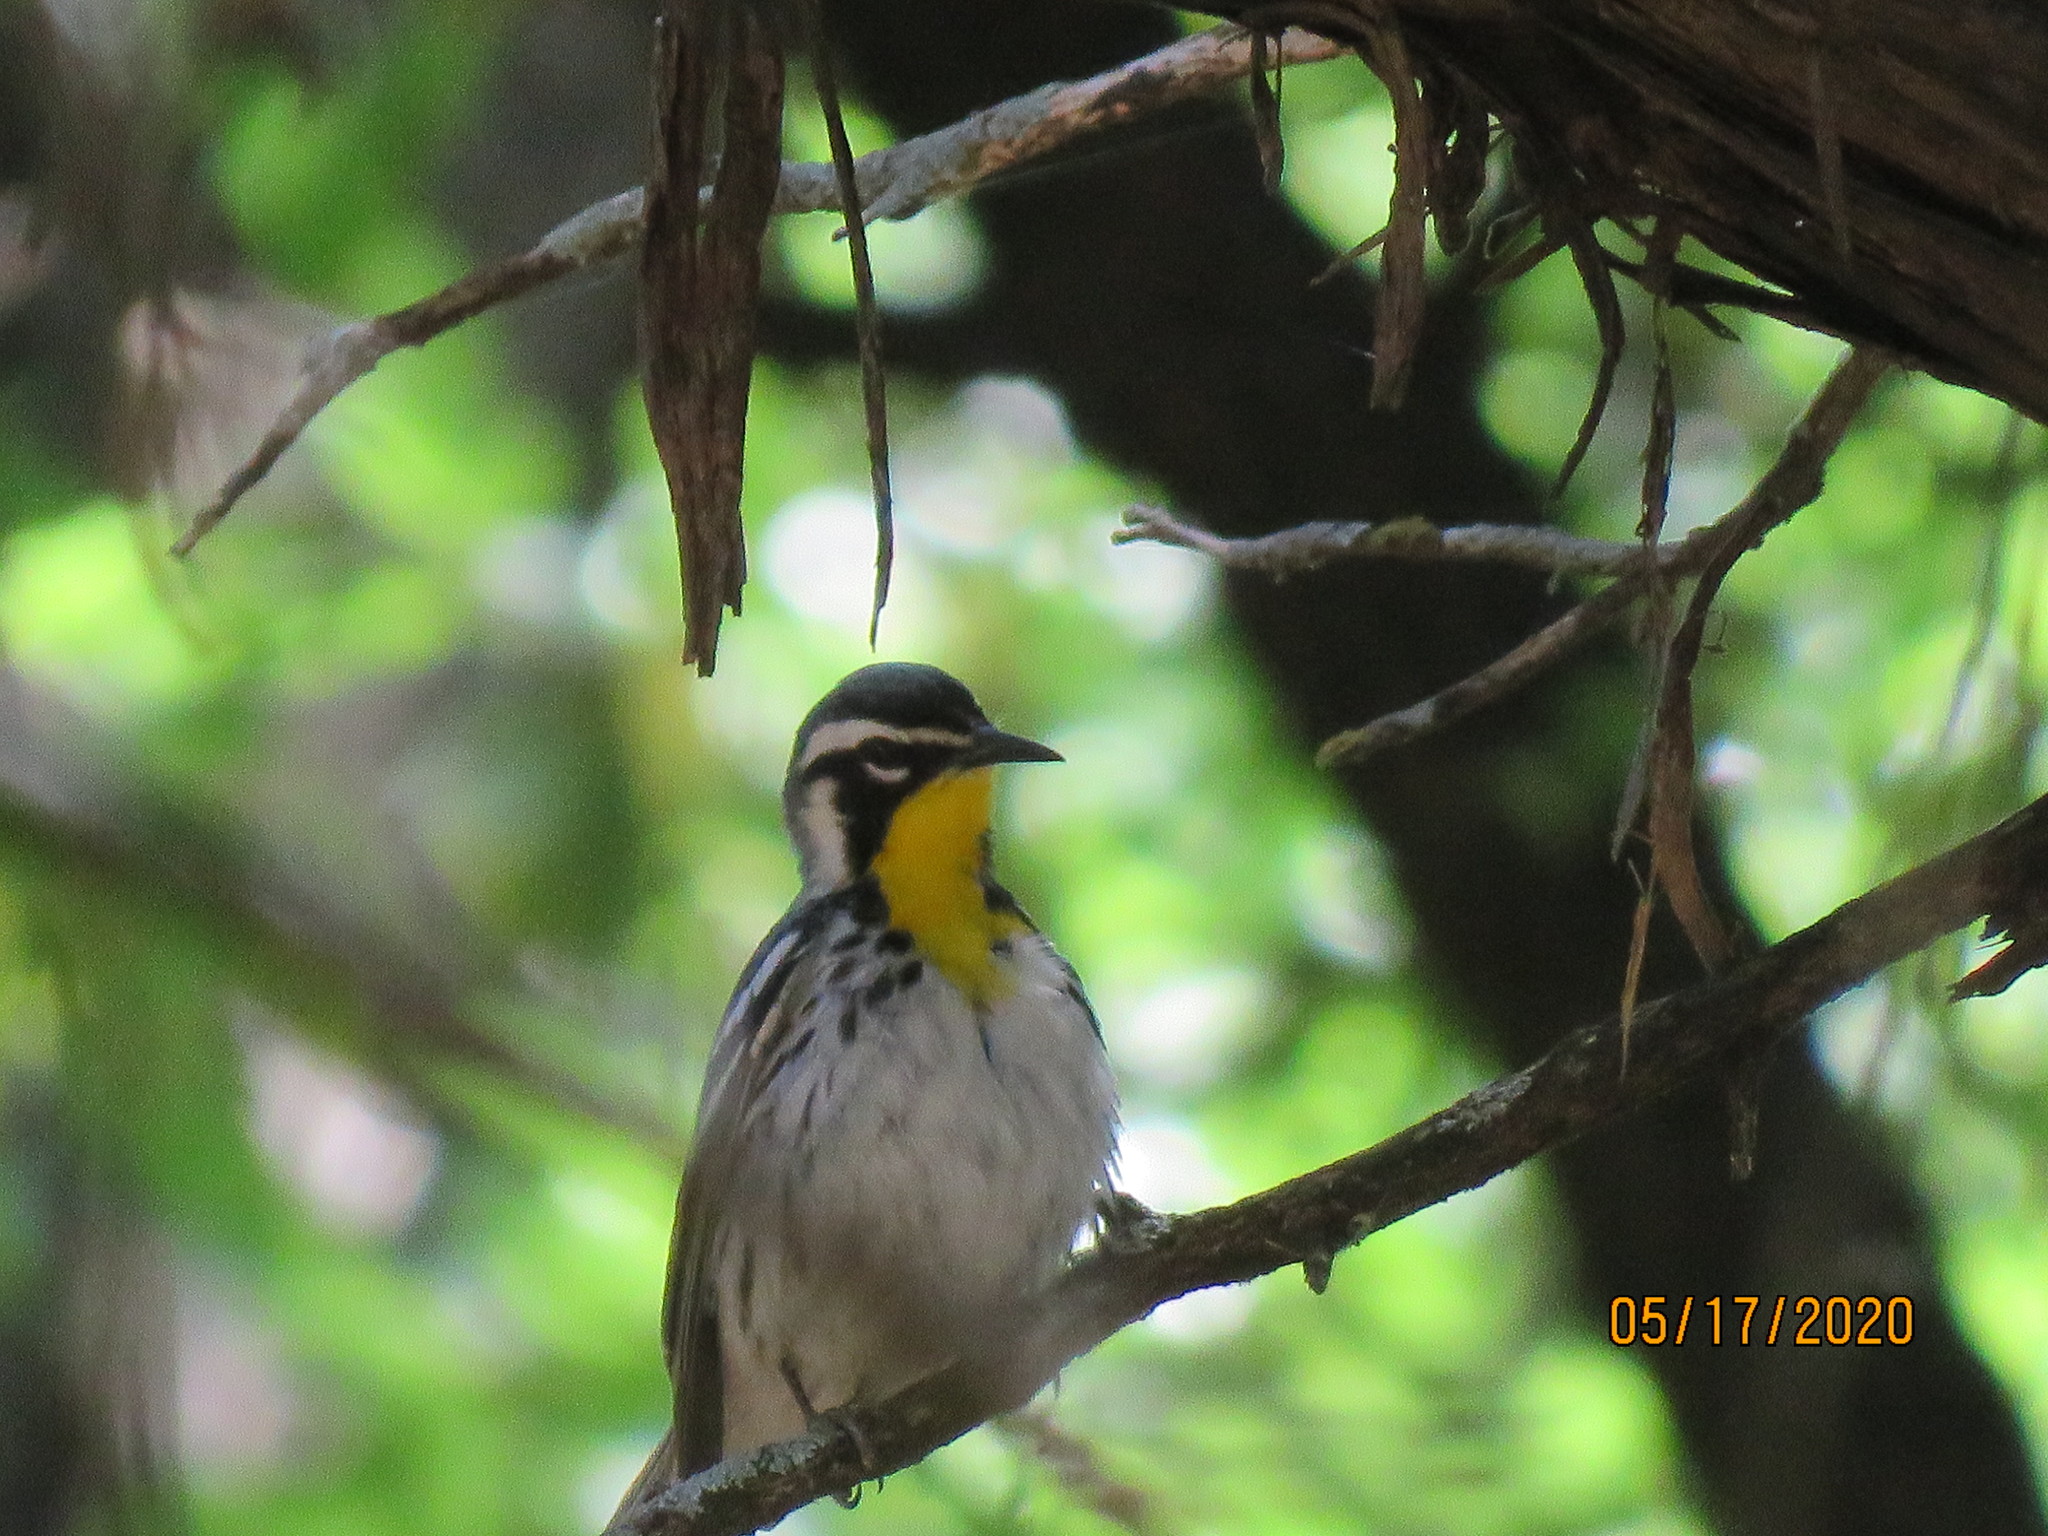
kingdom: Animalia
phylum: Chordata
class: Aves
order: Passeriformes
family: Parulidae
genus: Setophaga
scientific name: Setophaga dominica
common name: Yellow-throated warbler
